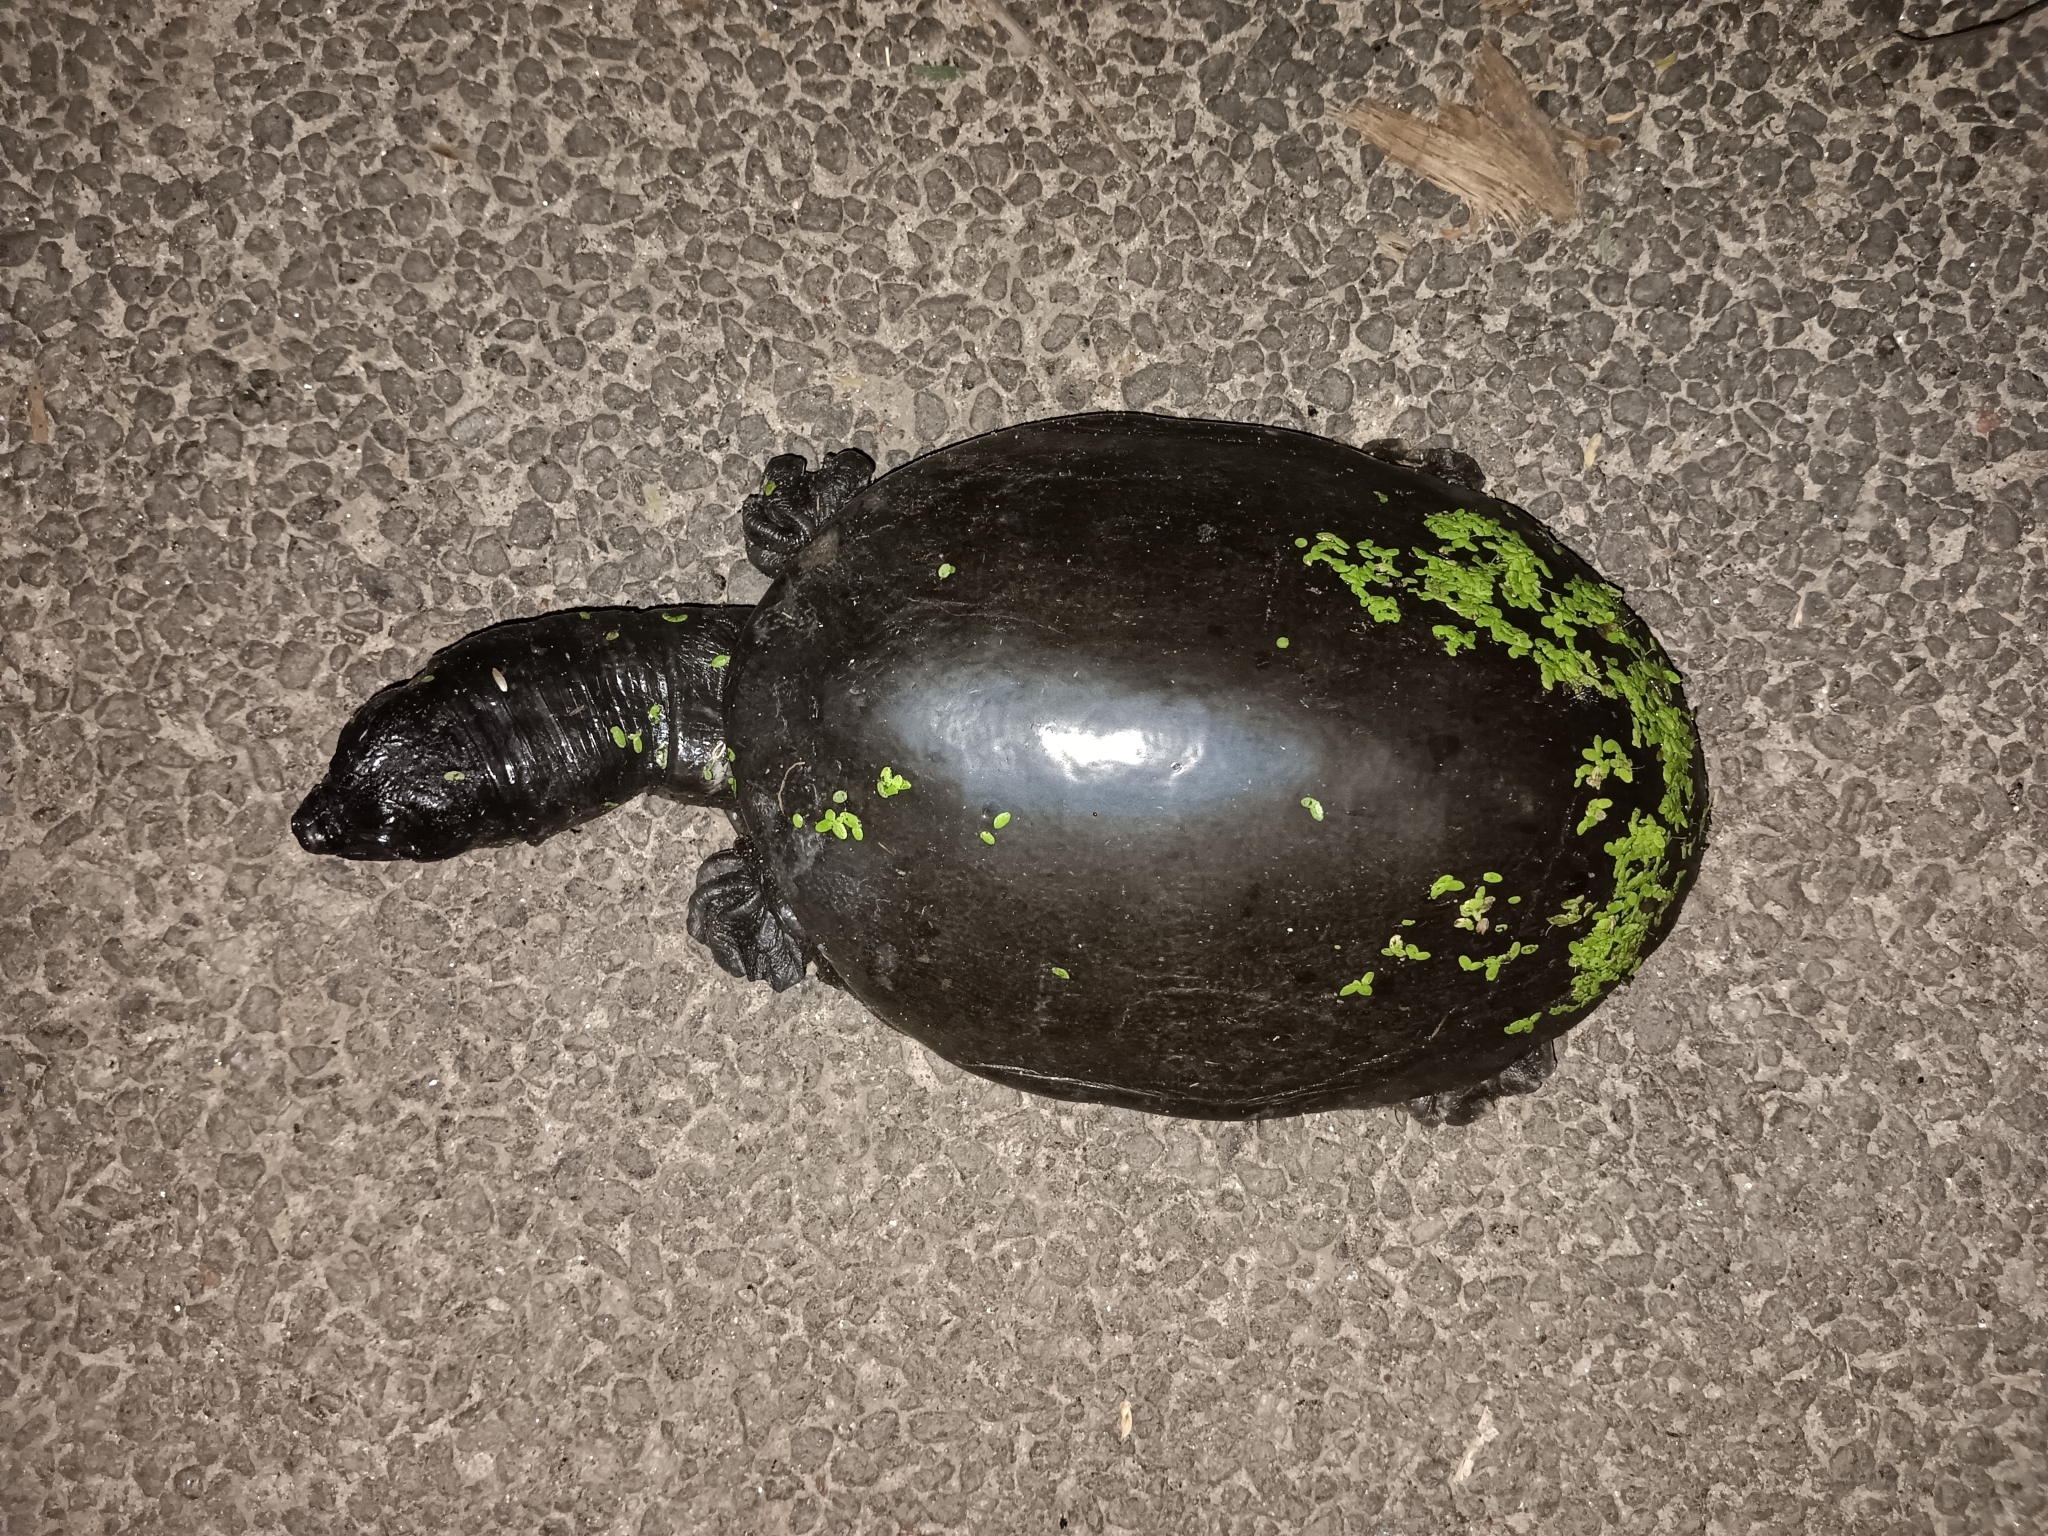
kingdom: Animalia
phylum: Chordata
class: Testudines
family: Trionychidae
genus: Lissemys
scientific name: Lissemys punctata
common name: Indian flap-shelled turtle
